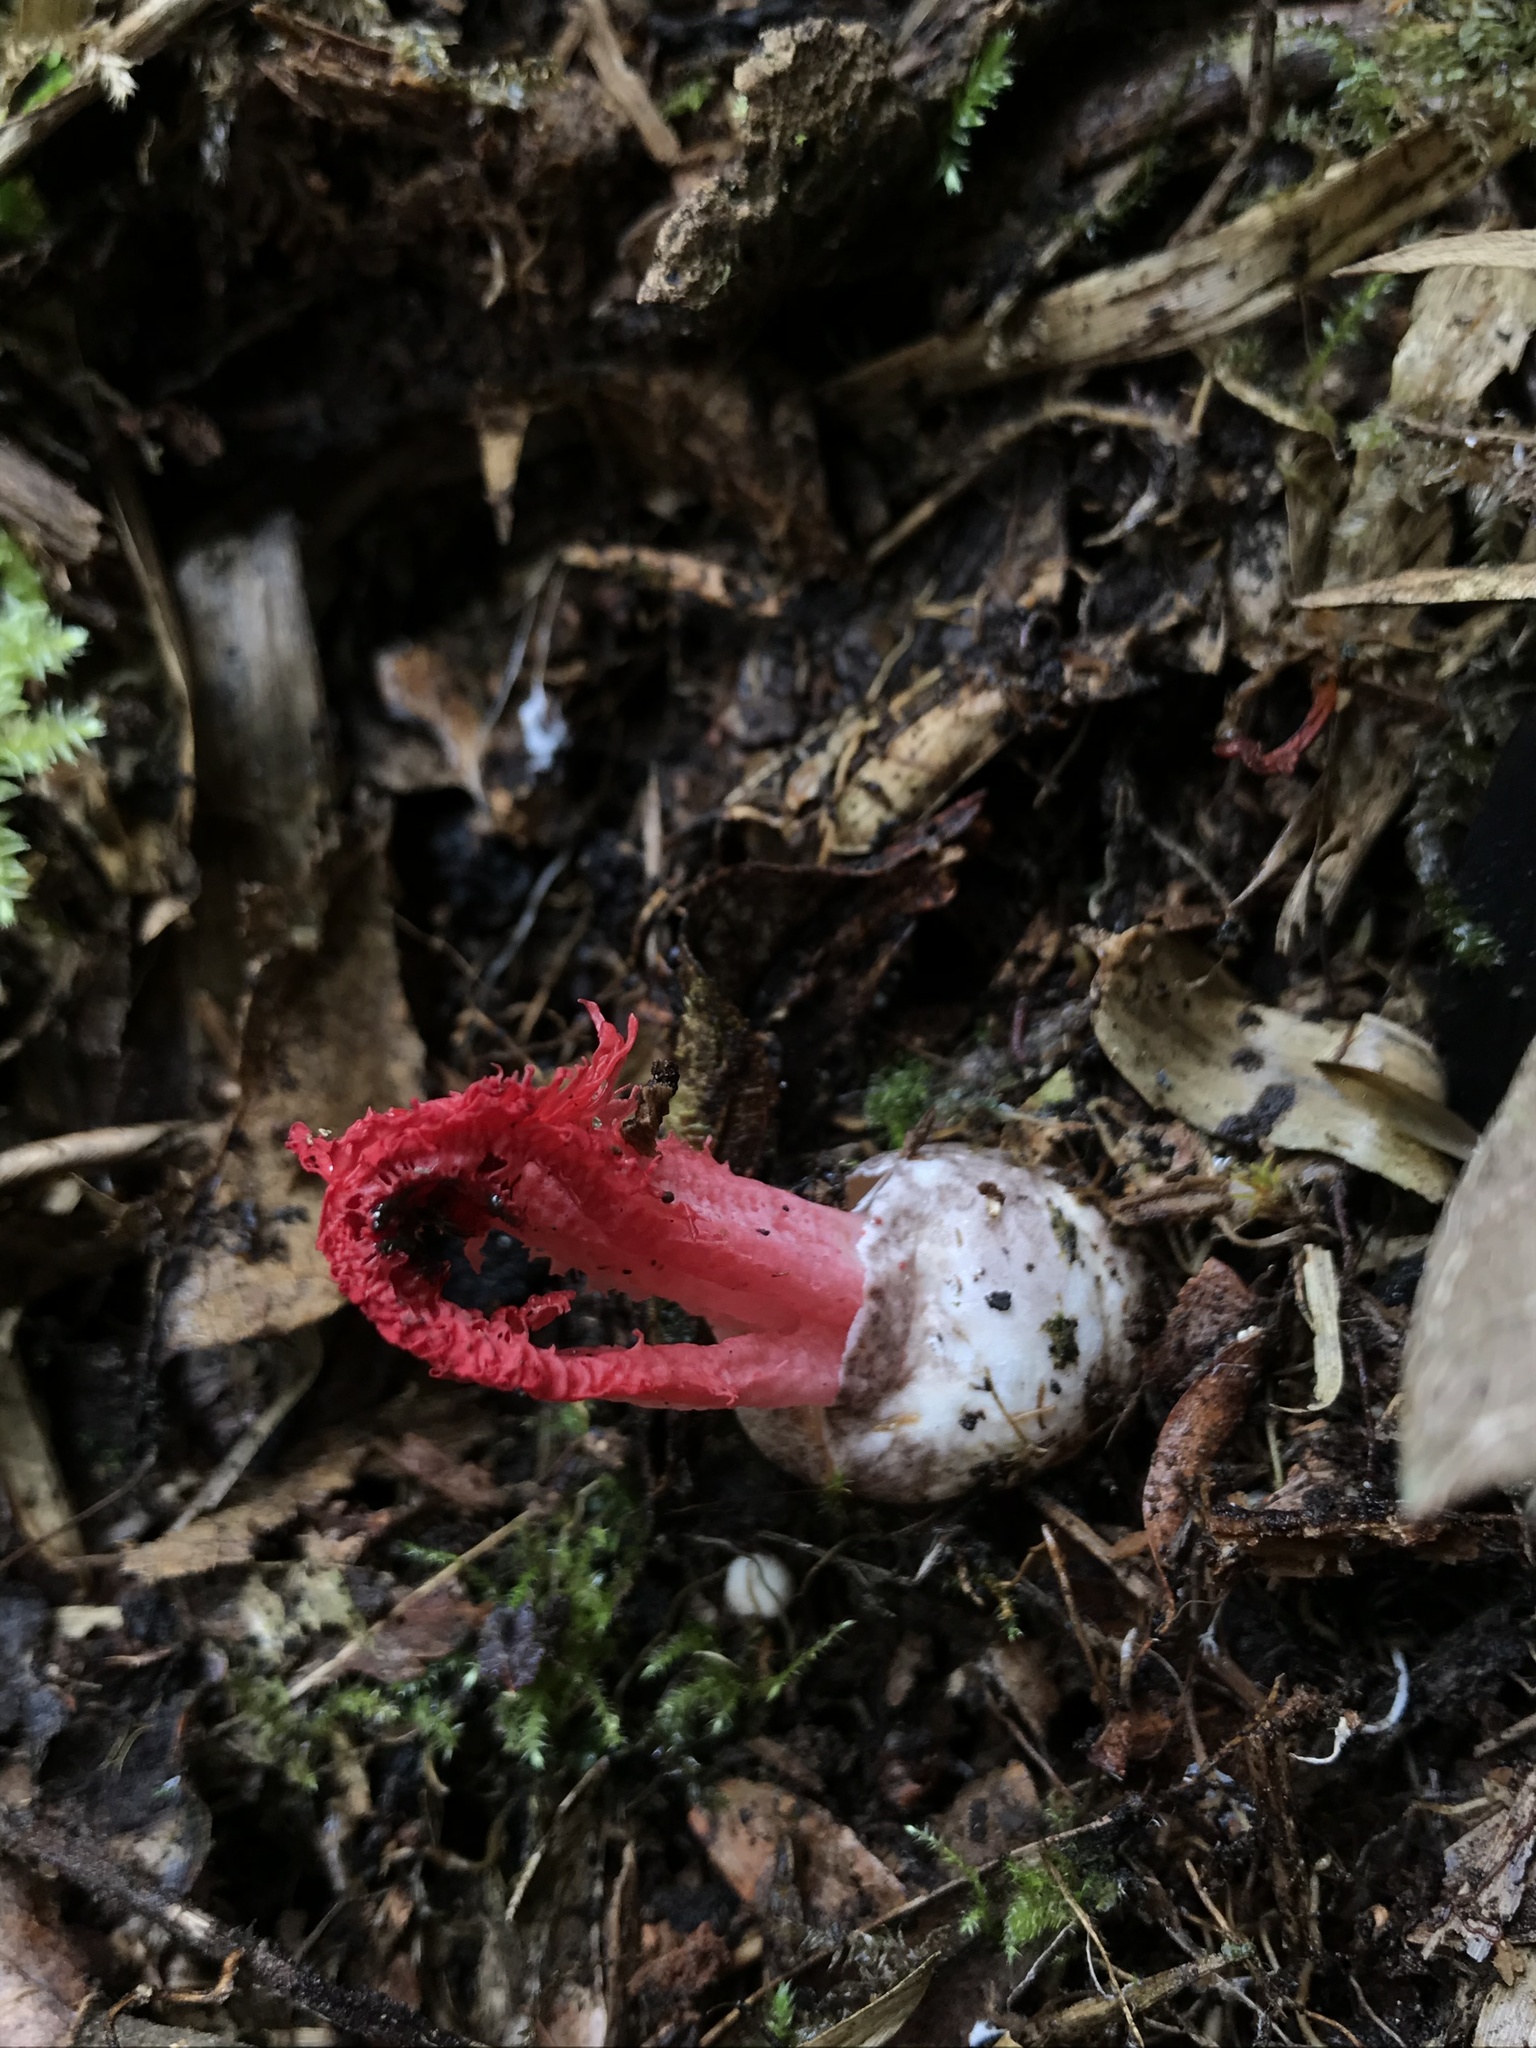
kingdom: Fungi
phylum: Basidiomycota
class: Agaricomycetes
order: Phallales
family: Phallaceae
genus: Laternea
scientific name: Laternea pusilla
